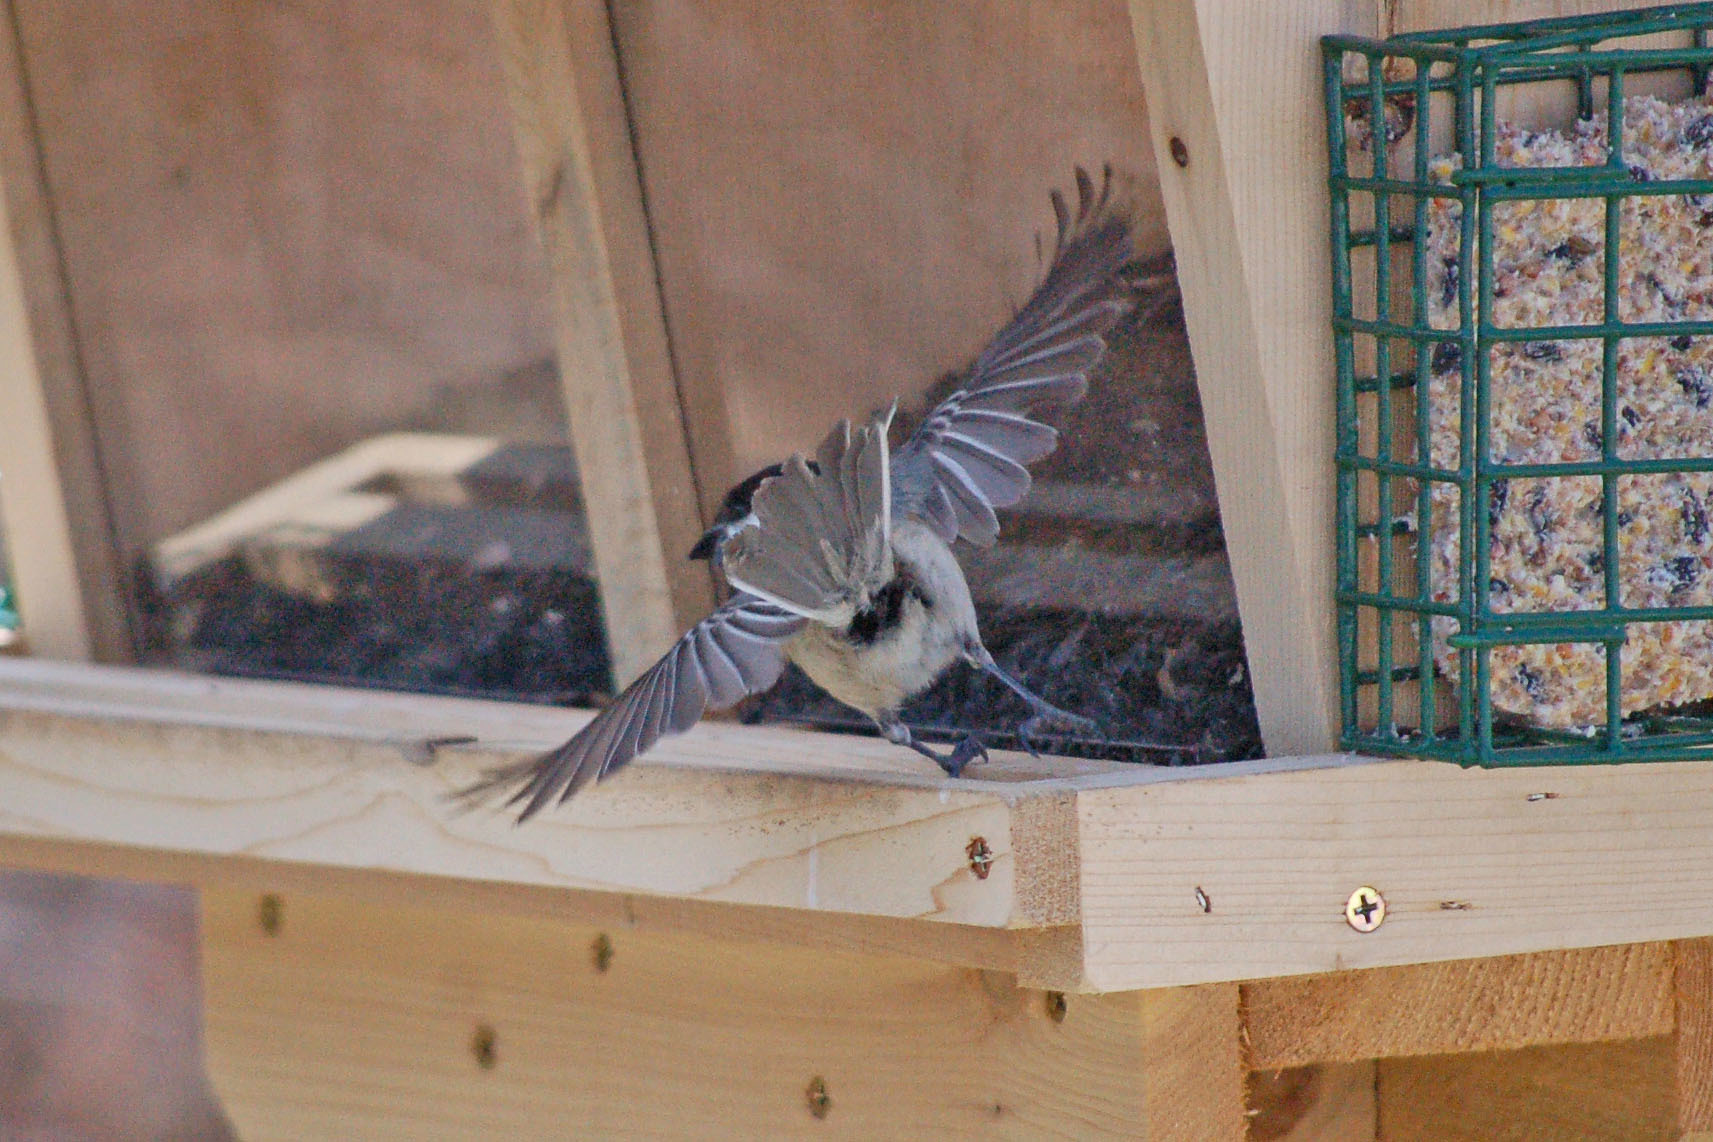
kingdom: Animalia
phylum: Chordata
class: Aves
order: Passeriformes
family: Paridae
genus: Poecile
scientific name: Poecile atricapillus
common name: Black-capped chickadee
